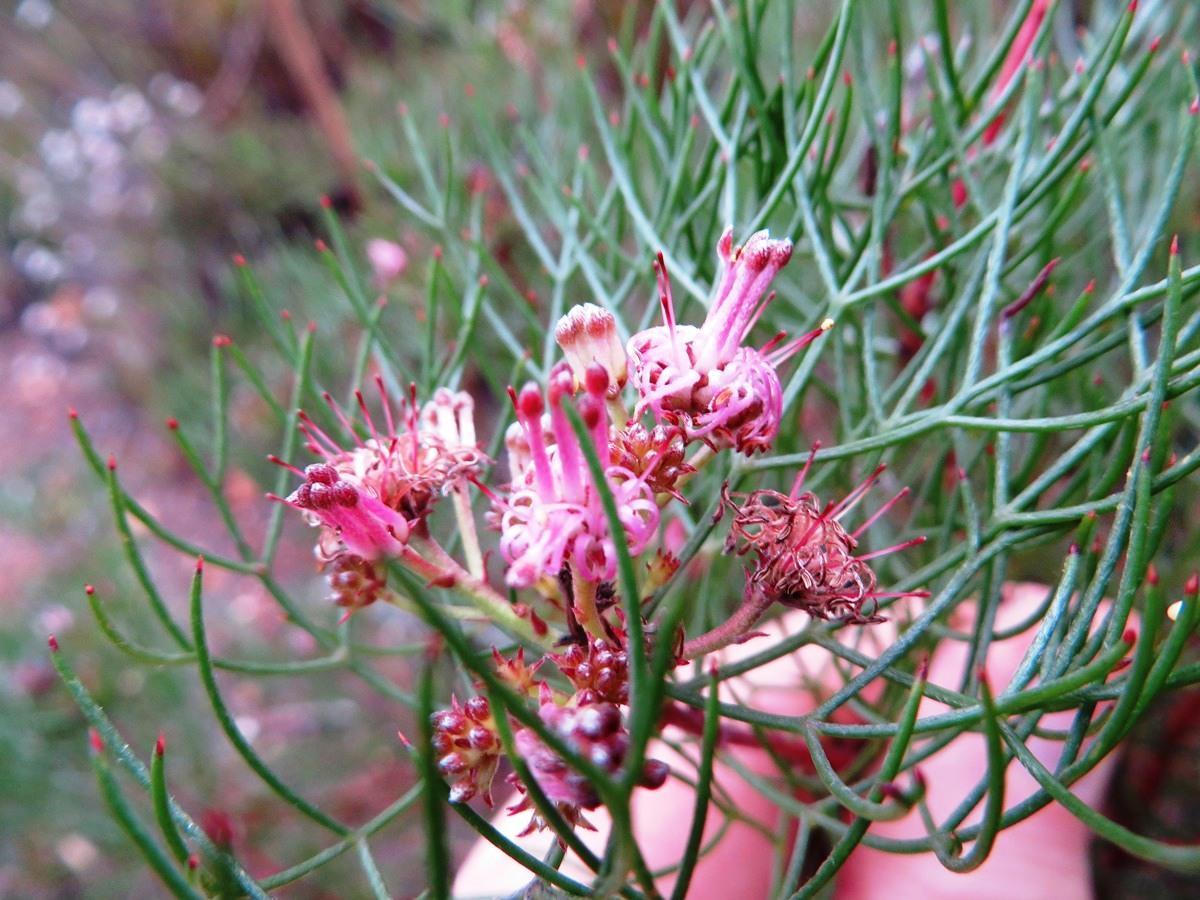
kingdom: Plantae
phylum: Tracheophyta
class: Magnoliopsida
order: Proteales
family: Proteaceae
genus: Serruria
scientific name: Serruria fasciflora
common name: Common pin spiderhead
